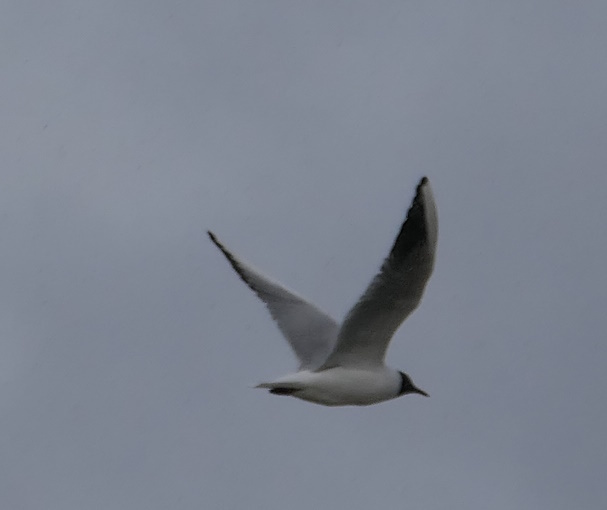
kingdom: Animalia
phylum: Chordata
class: Aves
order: Charadriiformes
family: Laridae
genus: Chroicocephalus
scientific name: Chroicocephalus ridibundus
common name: Black-headed gull
